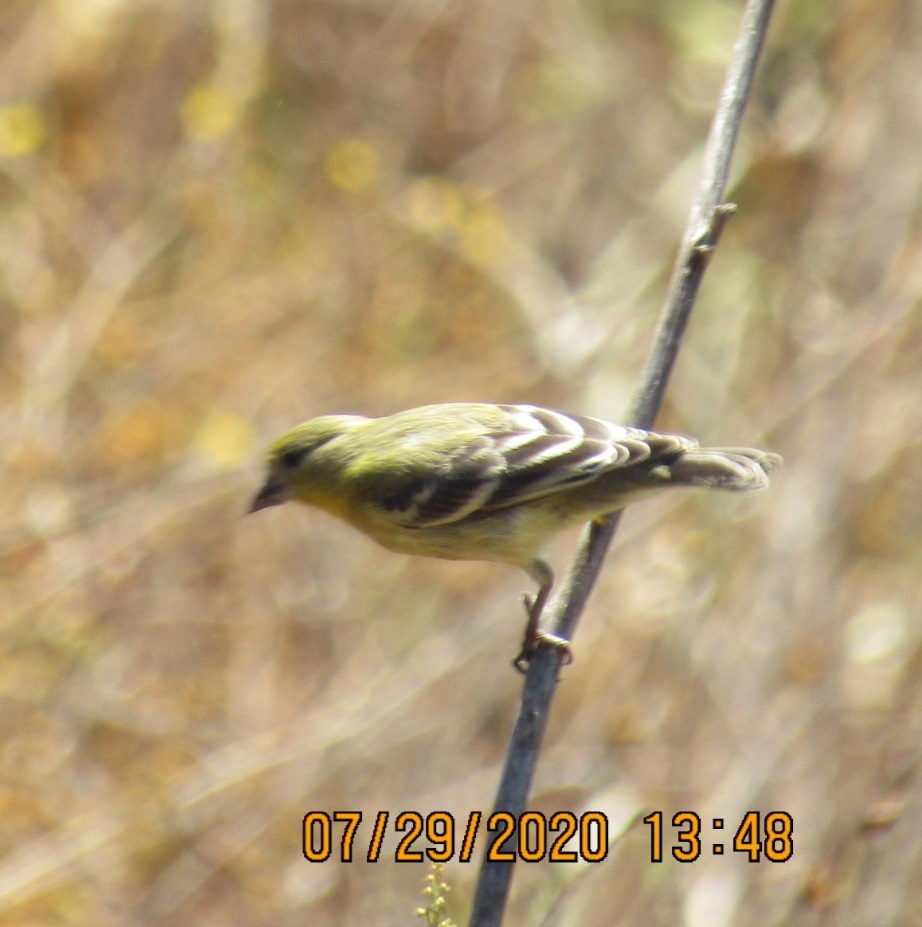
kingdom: Animalia
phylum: Chordata
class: Aves
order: Passeriformes
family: Fringillidae
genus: Spinus
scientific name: Spinus psaltria
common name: Lesser goldfinch
